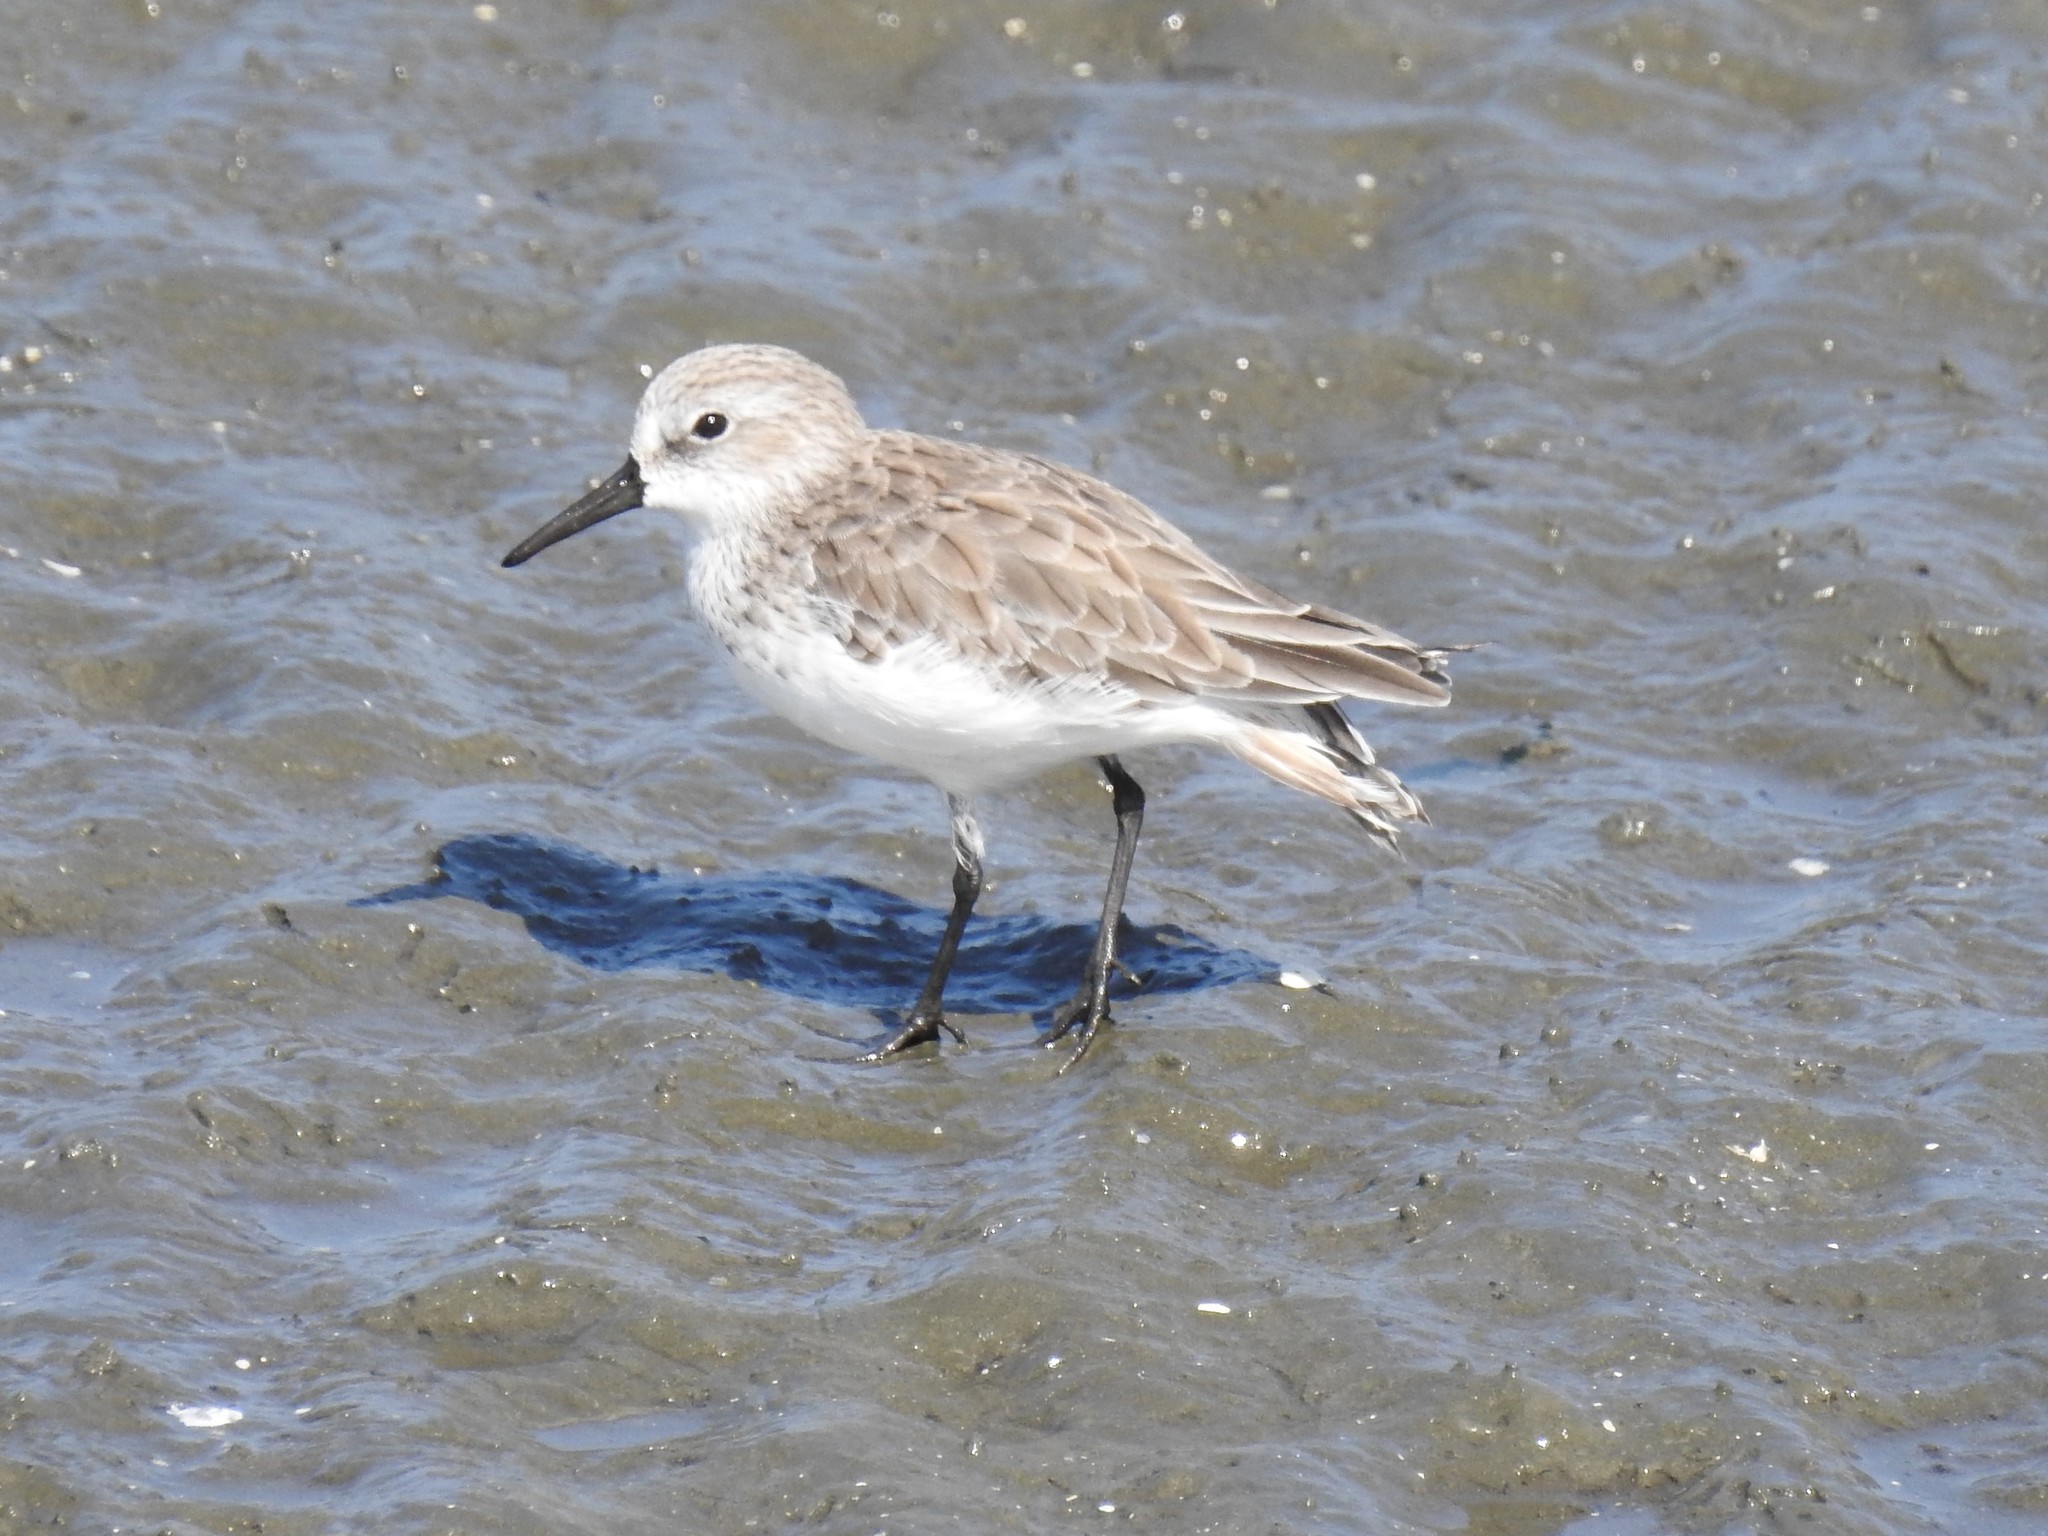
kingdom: Animalia
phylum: Chordata
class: Aves
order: Charadriiformes
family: Scolopacidae
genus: Calidris
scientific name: Calidris mauri
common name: Western sandpiper
